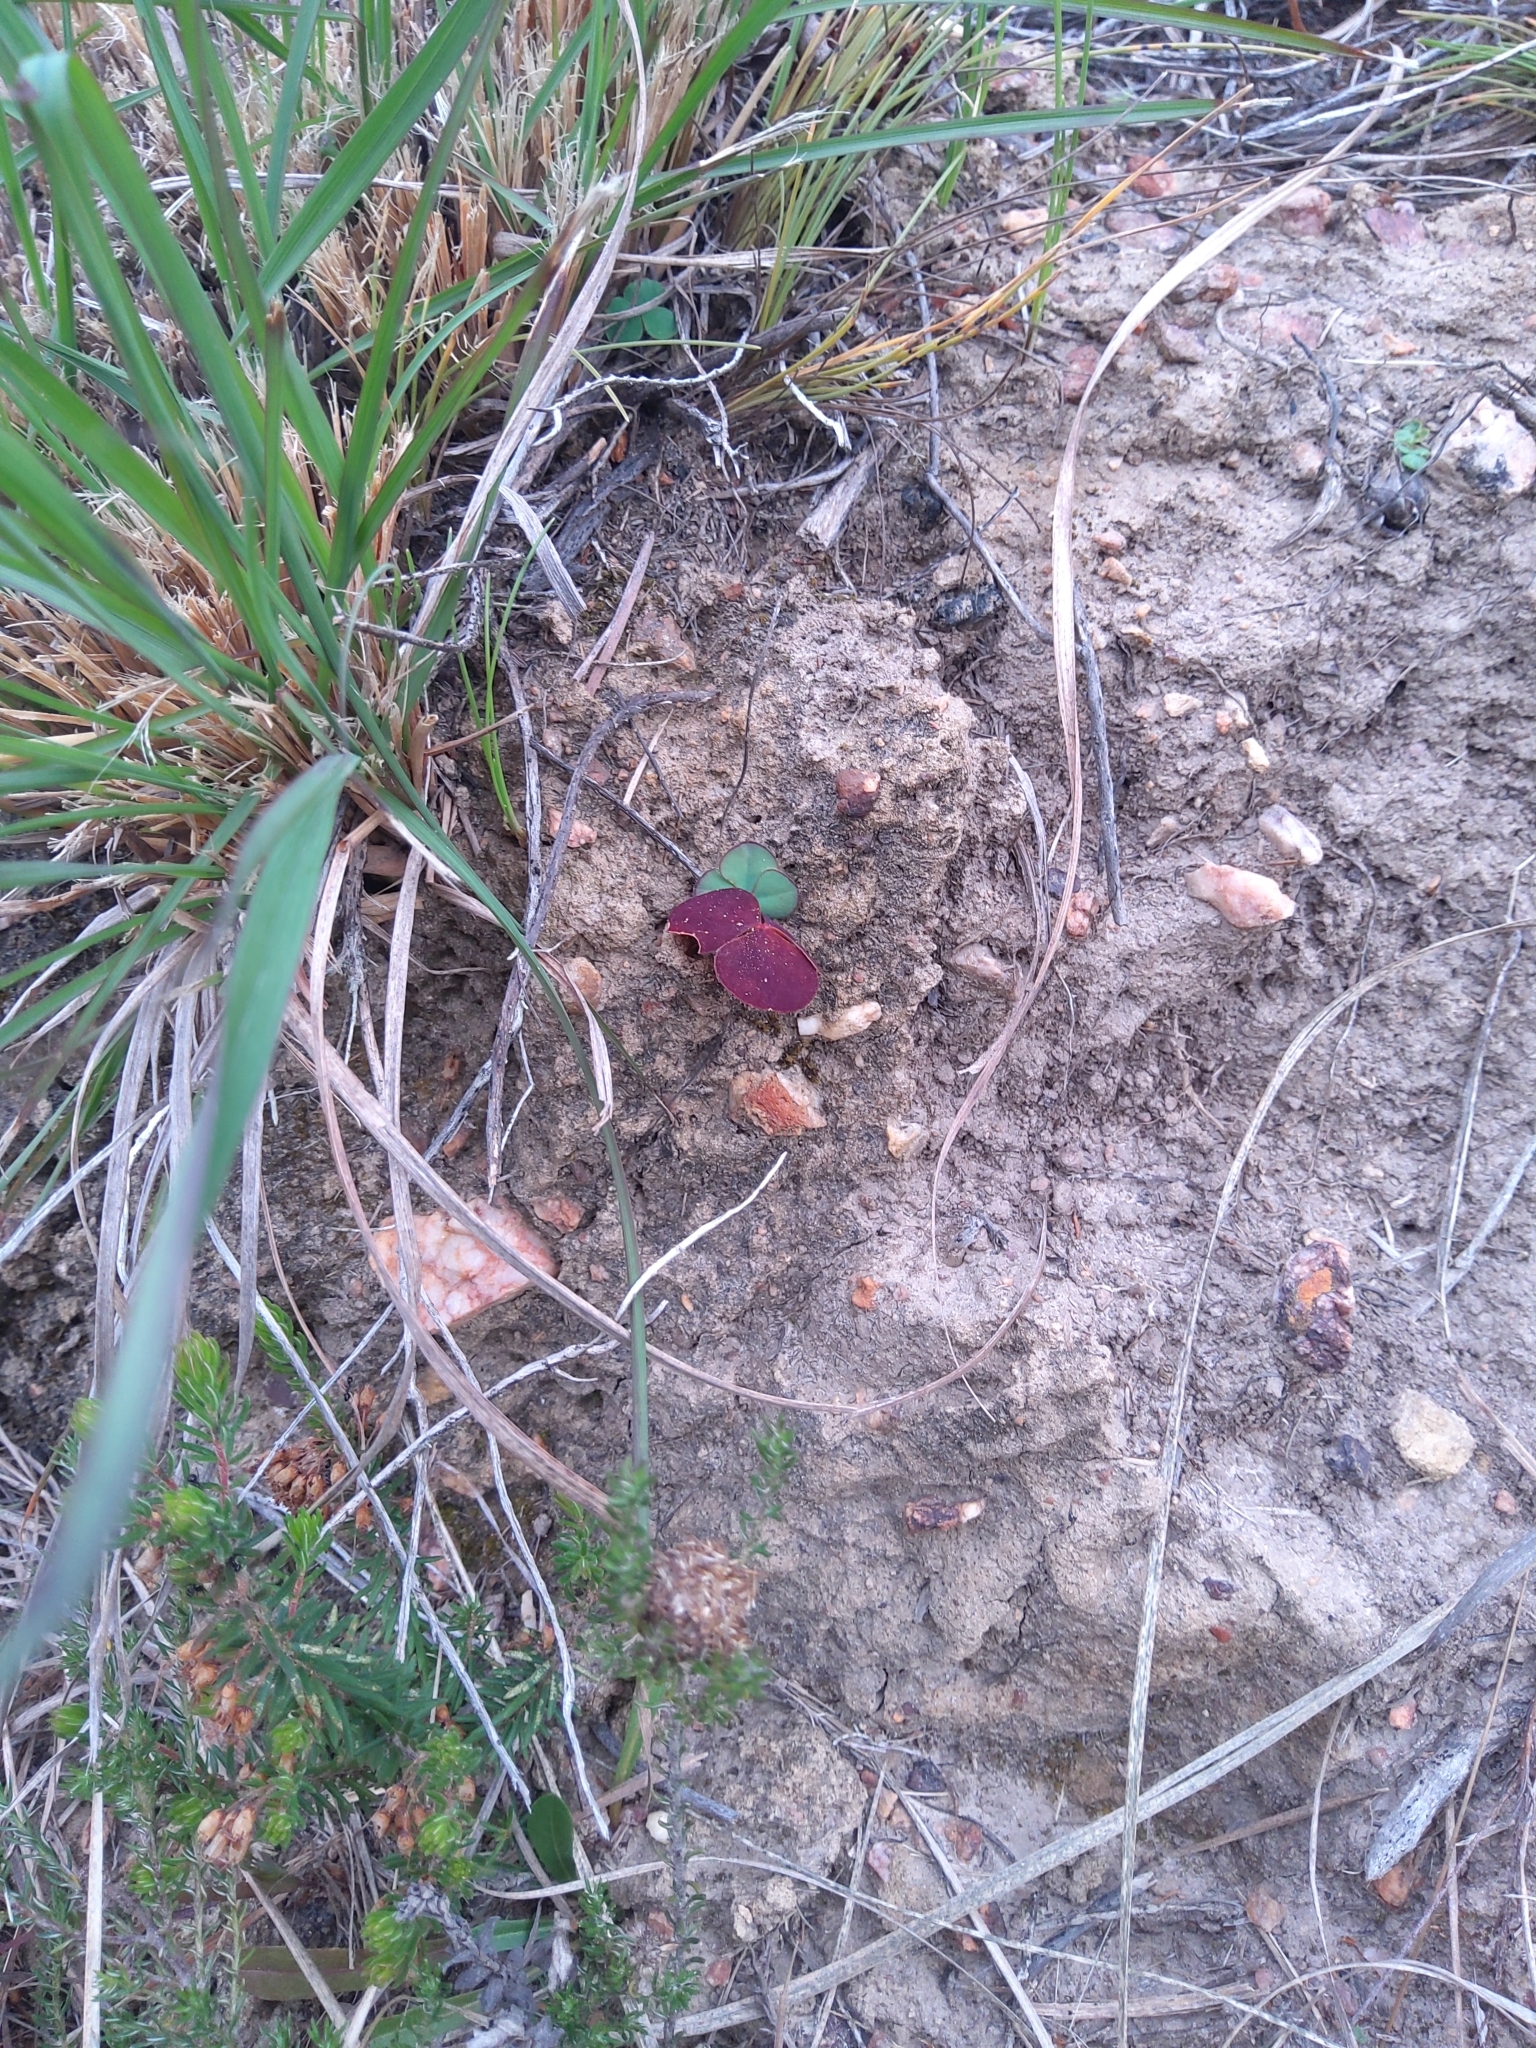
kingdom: Plantae
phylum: Tracheophyta
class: Magnoliopsida
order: Oxalidales
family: Oxalidaceae
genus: Oxalis
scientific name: Oxalis purpurea
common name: Purple woodsorrel
